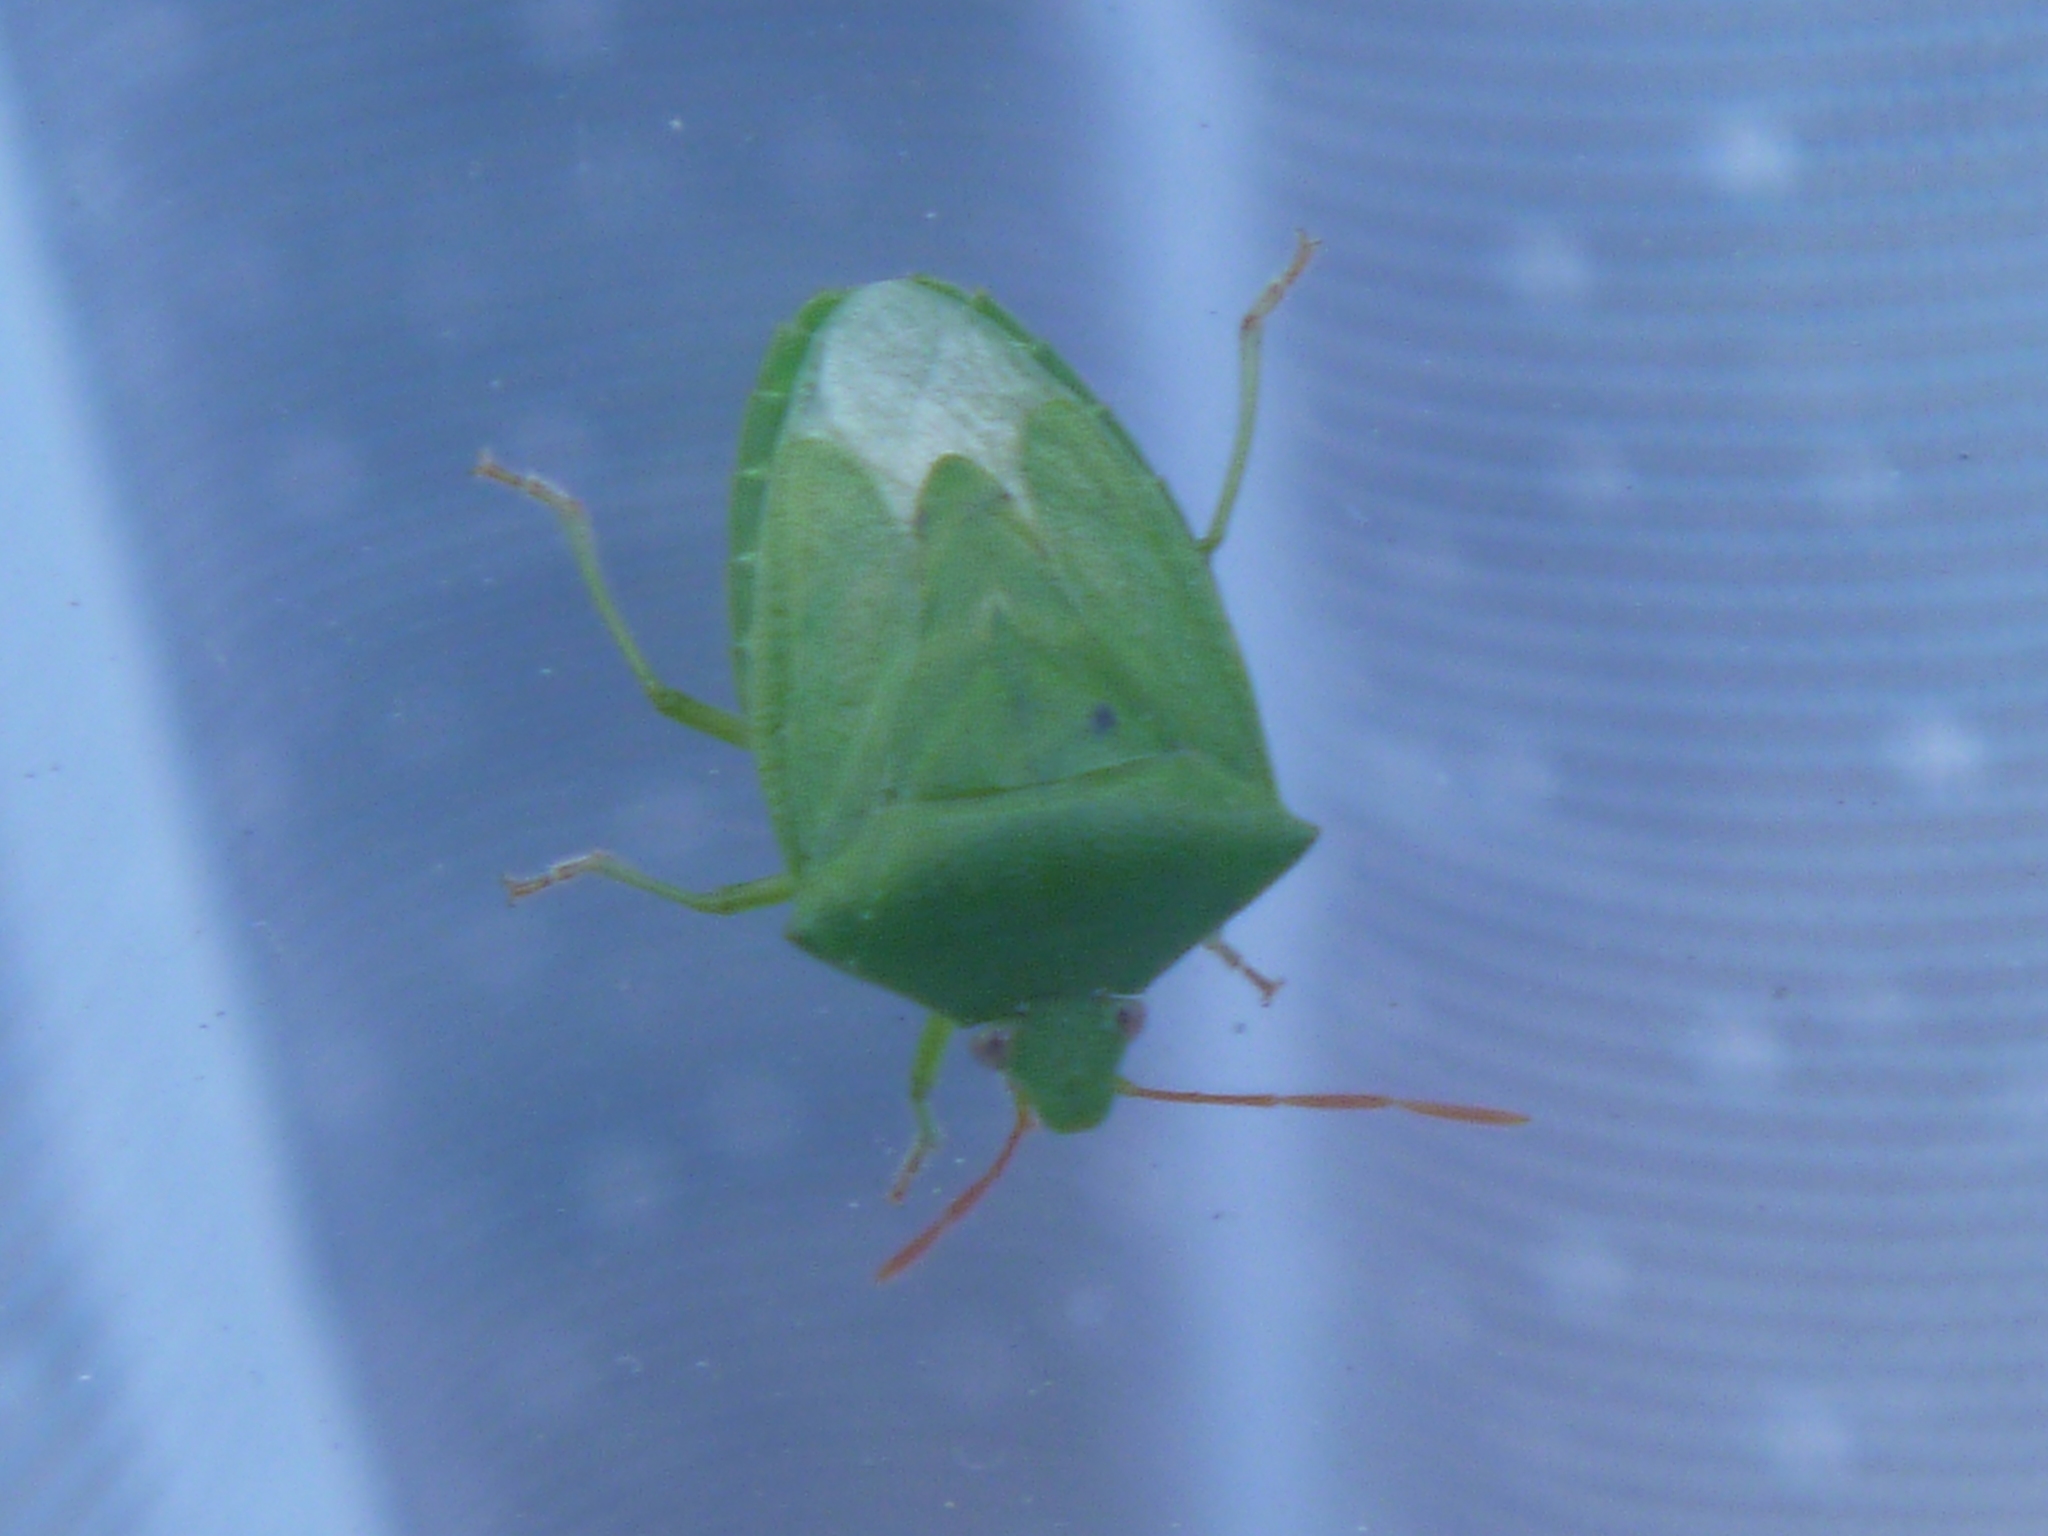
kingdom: Animalia
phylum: Arthropoda
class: Insecta
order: Hemiptera
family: Pentatomidae
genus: Cuspicona
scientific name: Cuspicona simplex
